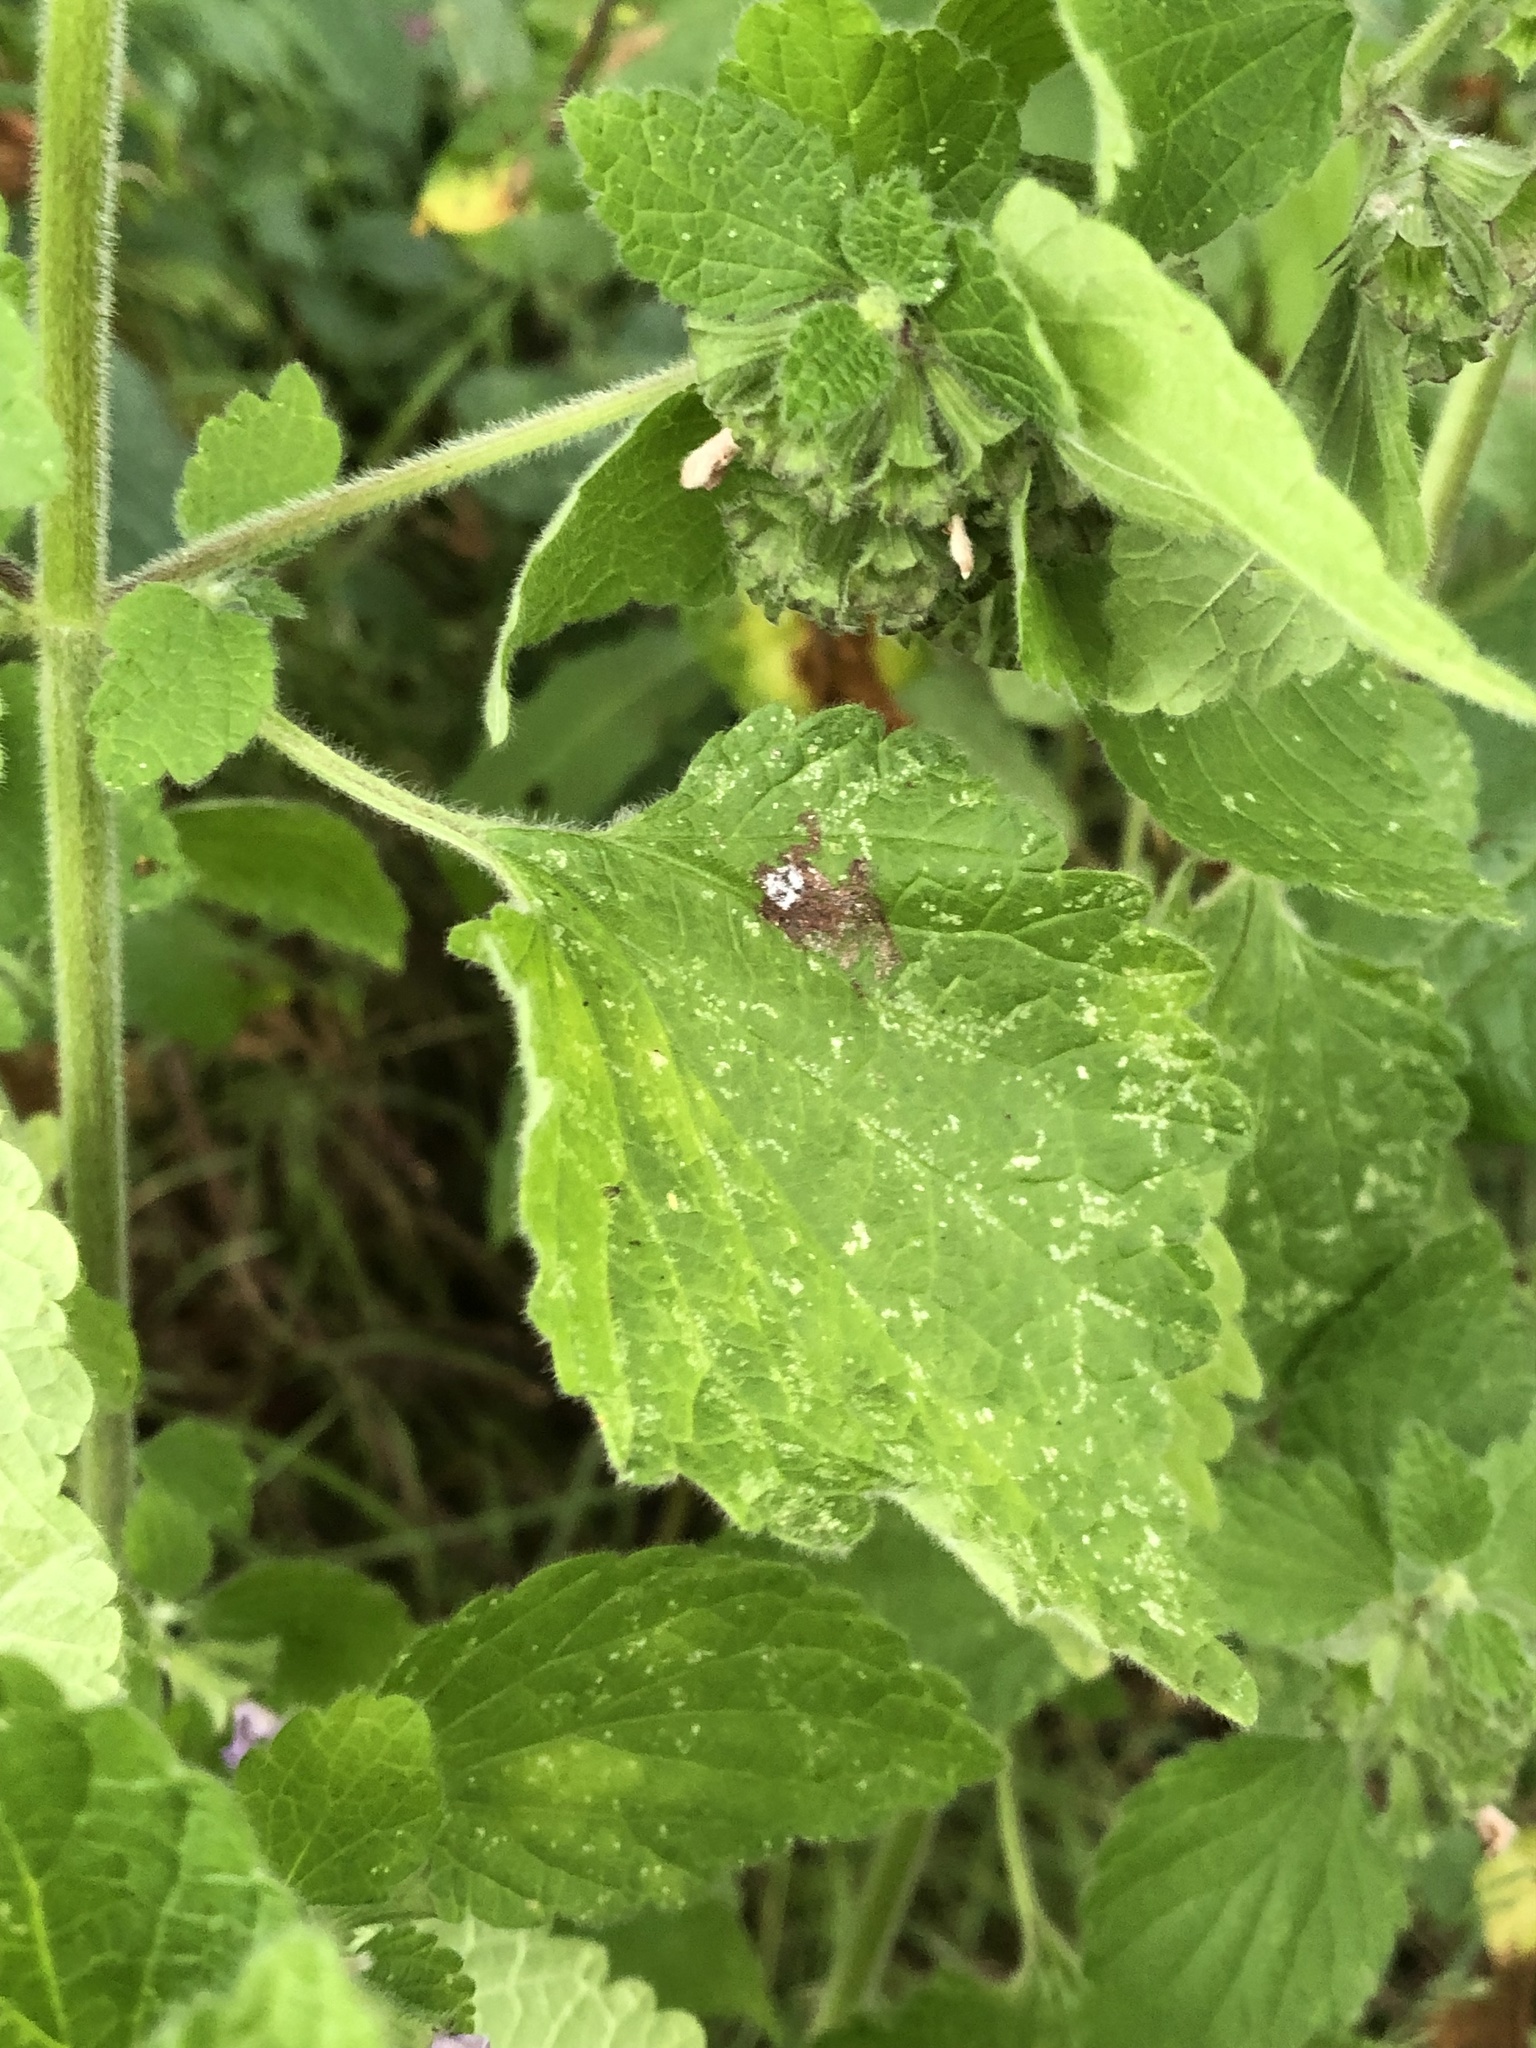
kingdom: Plantae
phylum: Tracheophyta
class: Magnoliopsida
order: Lamiales
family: Lamiaceae
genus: Ballota
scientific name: Ballota nigra
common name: Black horehound
